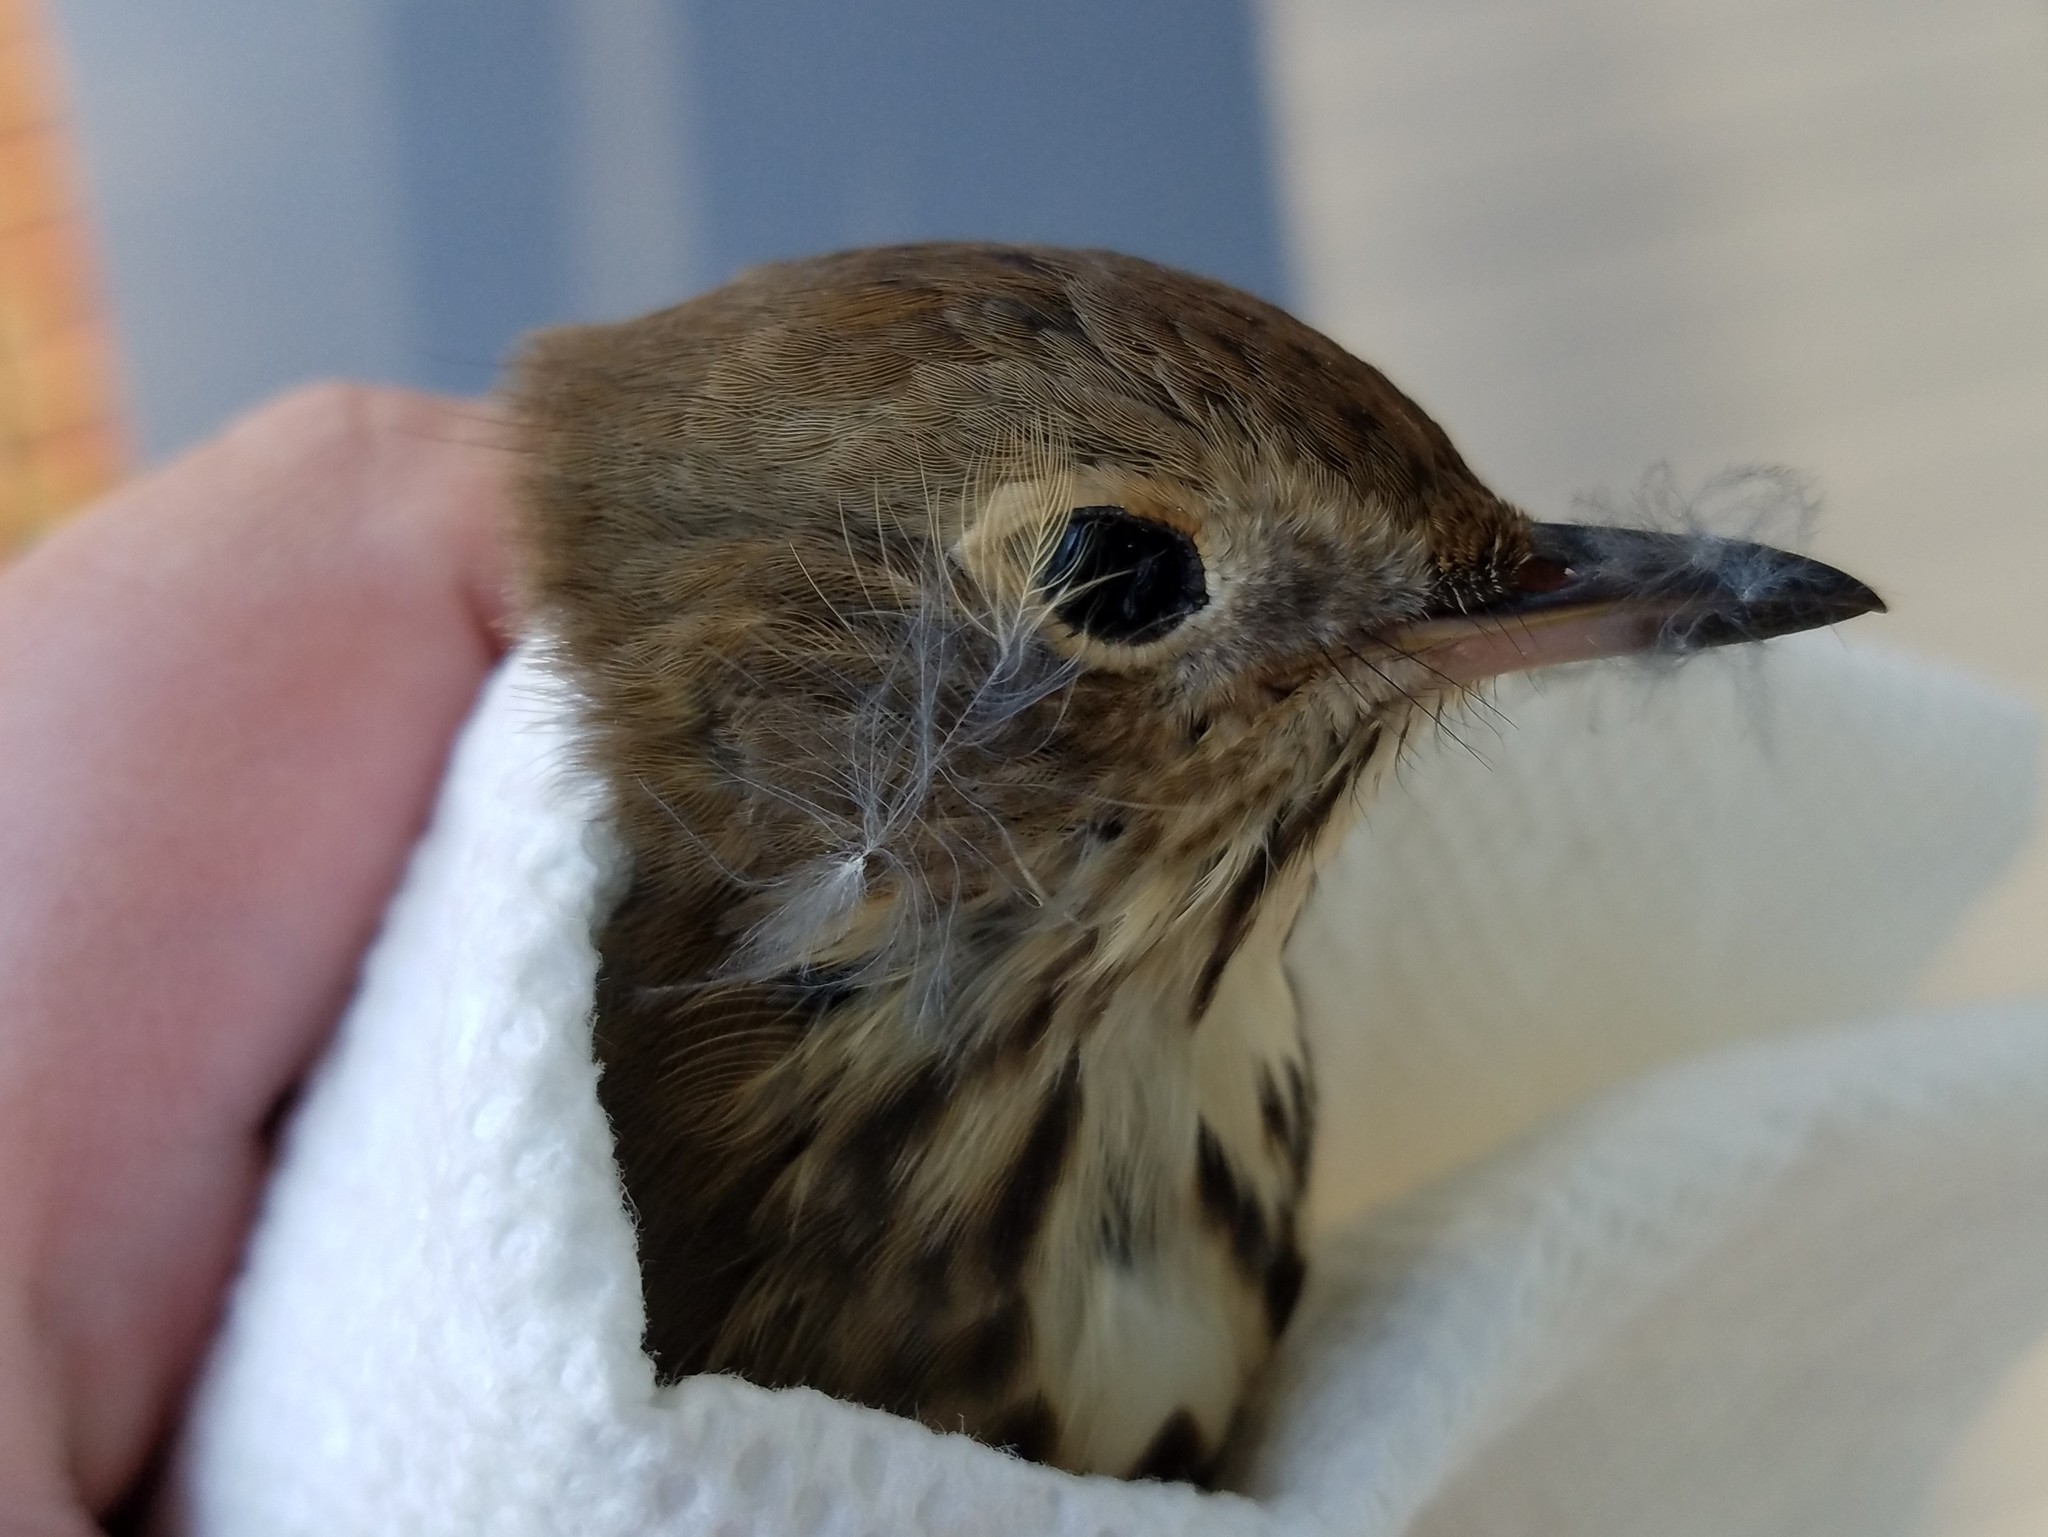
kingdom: Animalia
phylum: Chordata
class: Aves
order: Passeriformes
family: Turdidae
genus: Catharus
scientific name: Catharus guttatus
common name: Hermit thrush
